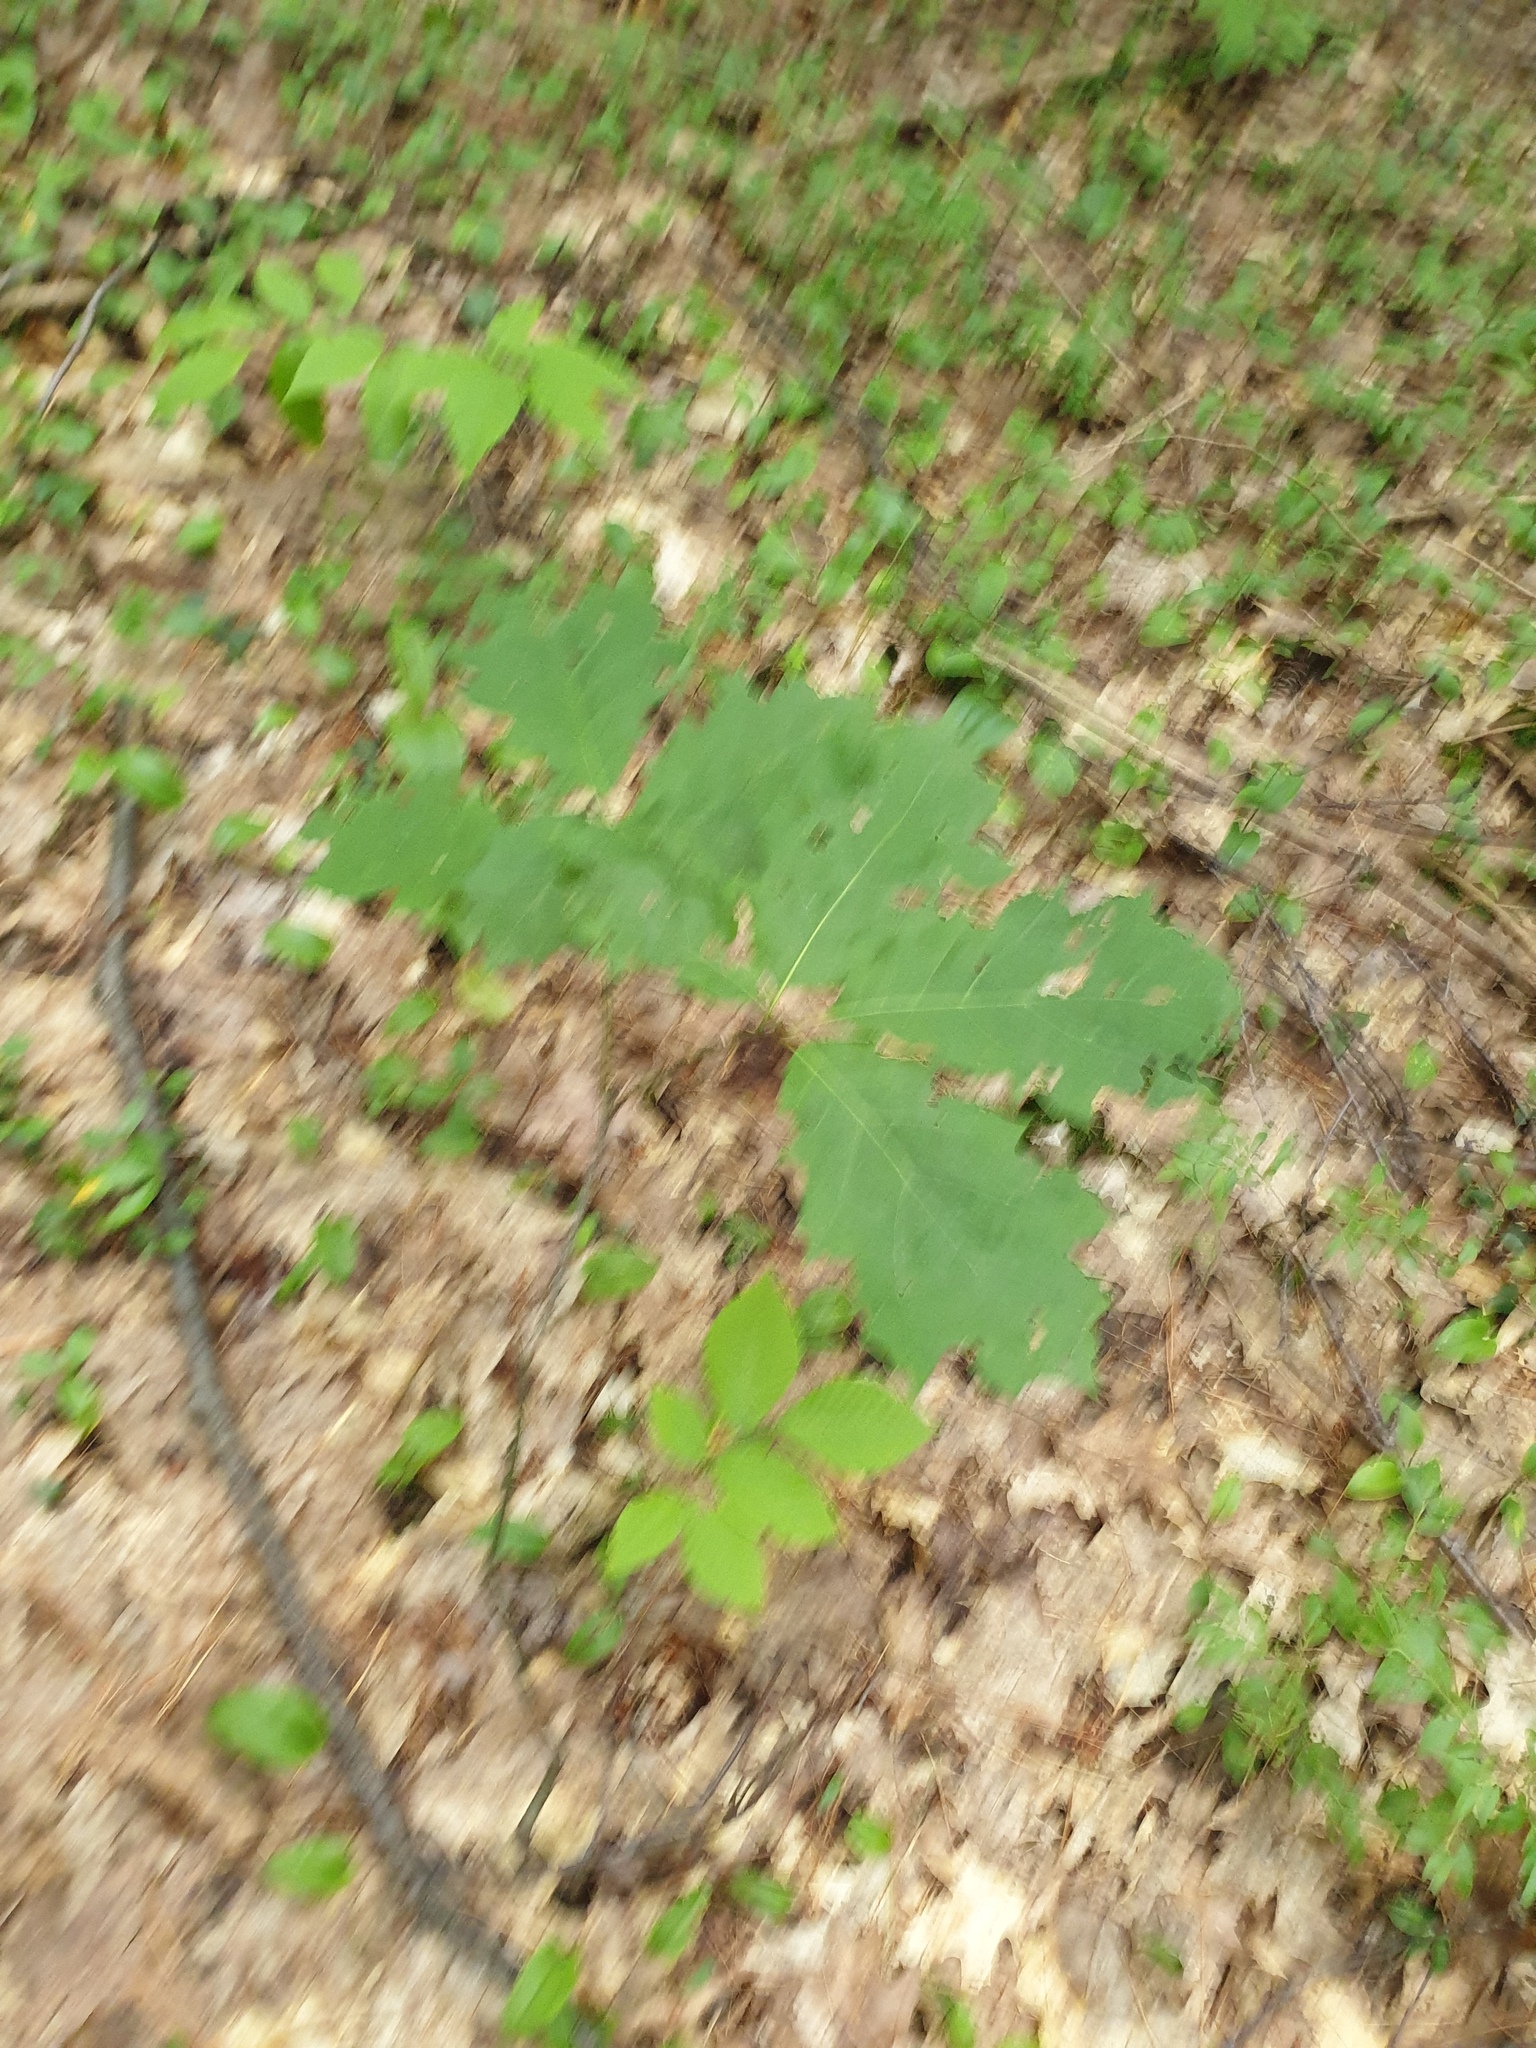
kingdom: Plantae
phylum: Tracheophyta
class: Magnoliopsida
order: Fagales
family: Fagaceae
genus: Quercus
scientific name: Quercus rubra
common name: Red oak
